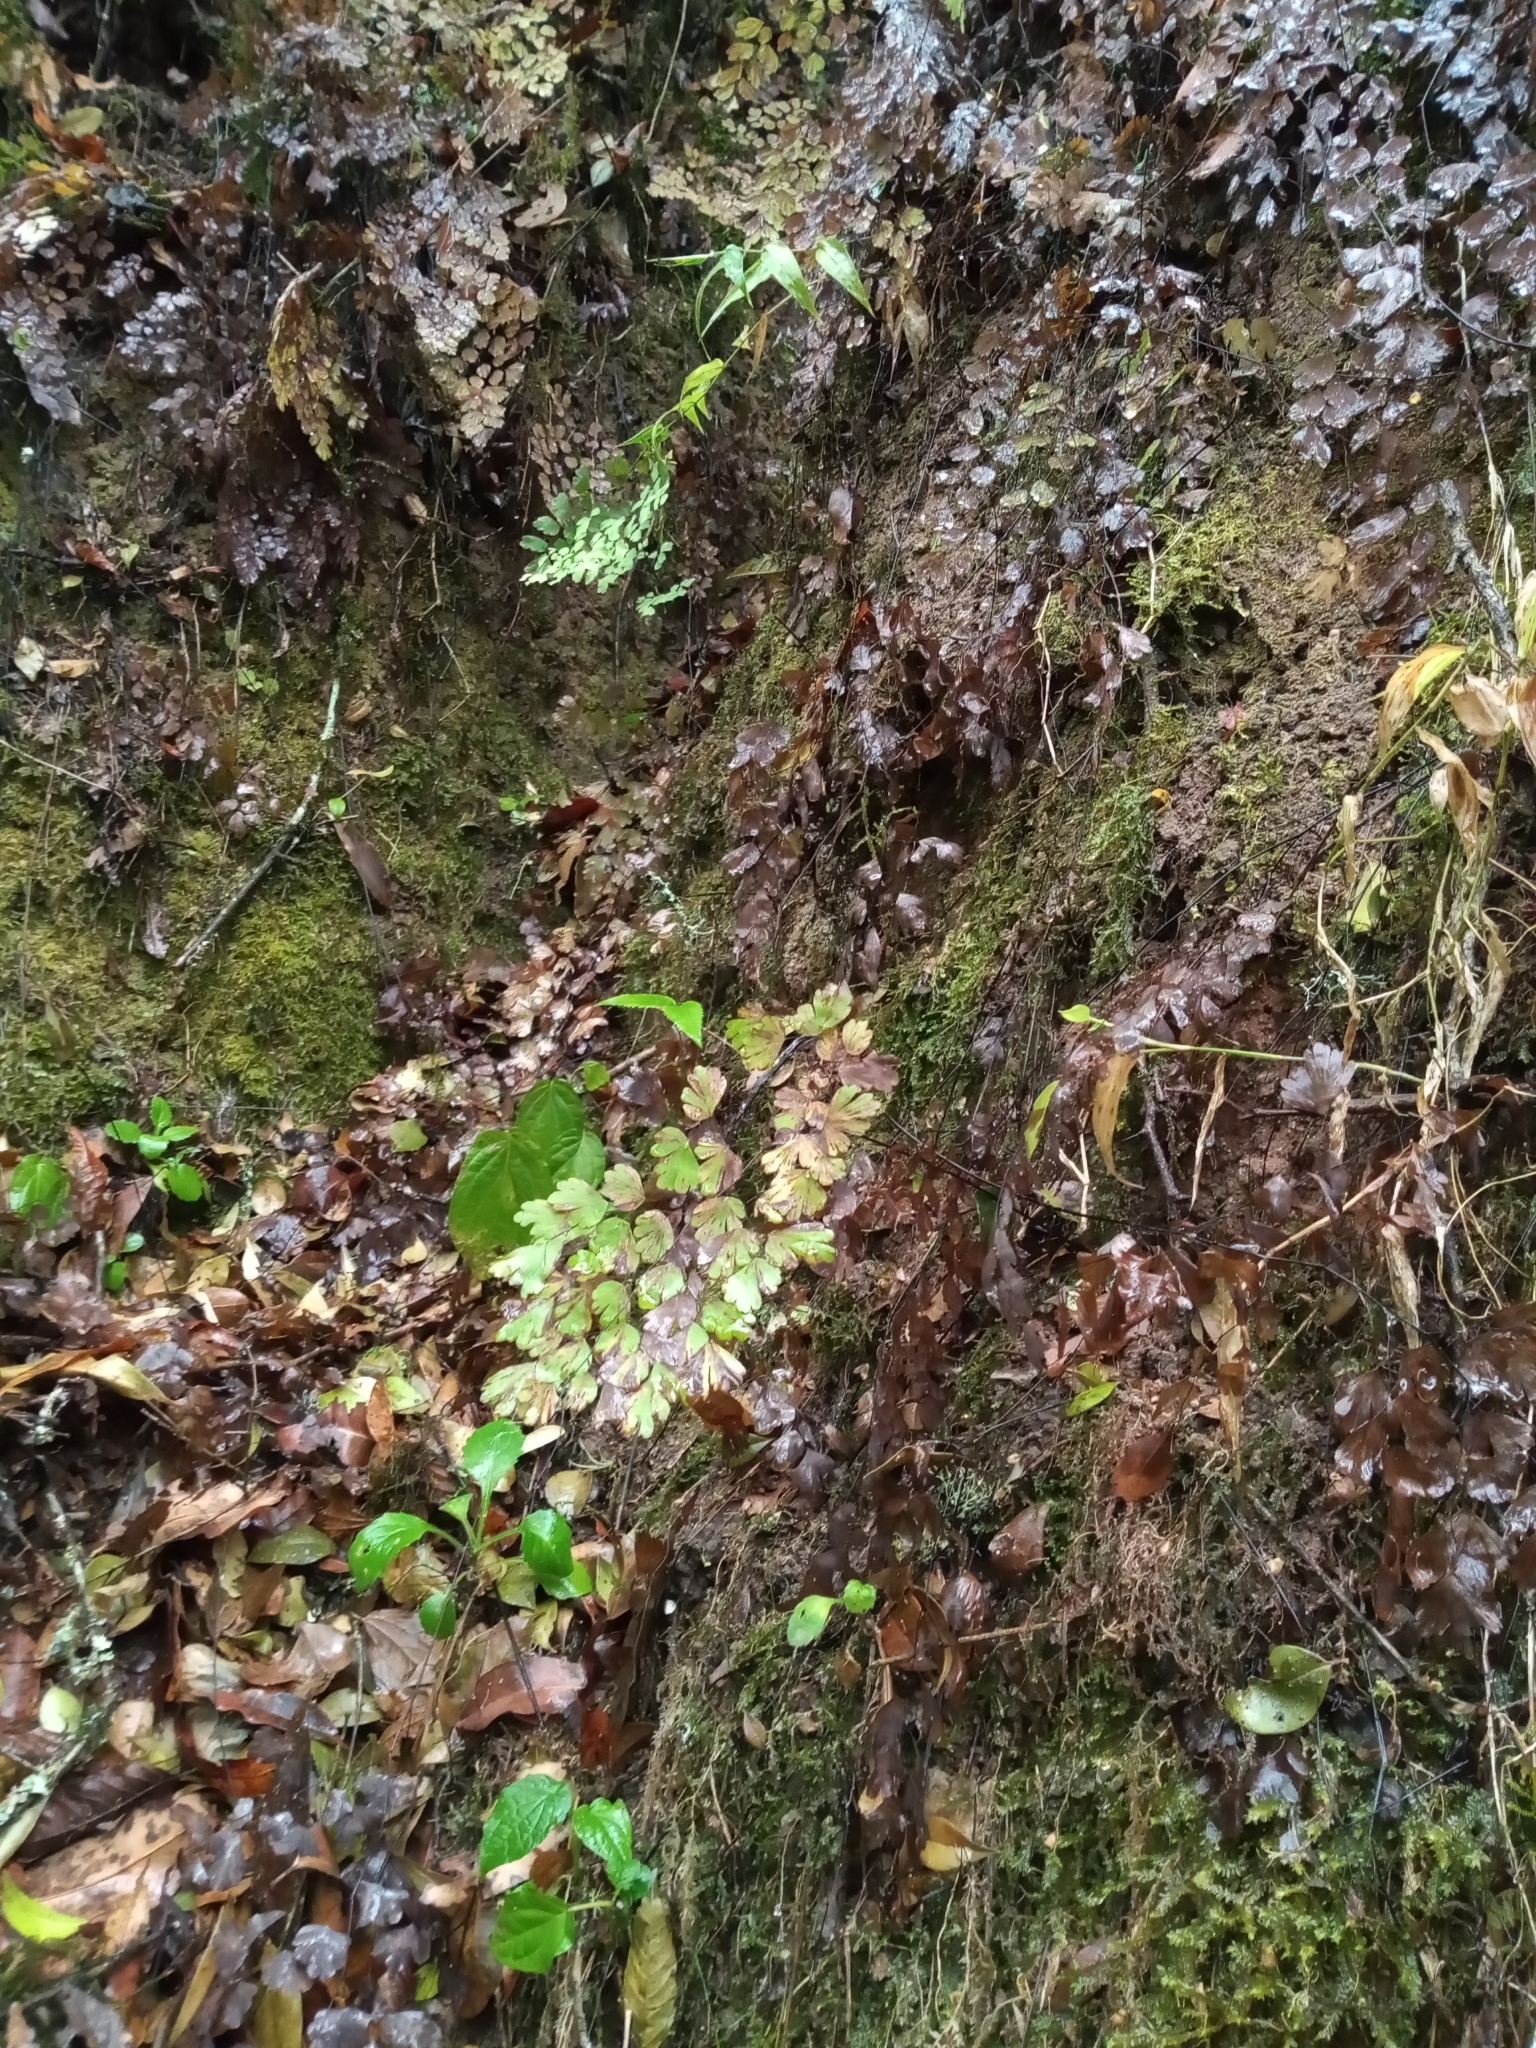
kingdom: Plantae
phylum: Tracheophyta
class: Polypodiopsida
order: Polypodiales
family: Pteridaceae
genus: Adiantum
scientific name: Adiantum capillus-veneris
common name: Maidenhair fern
